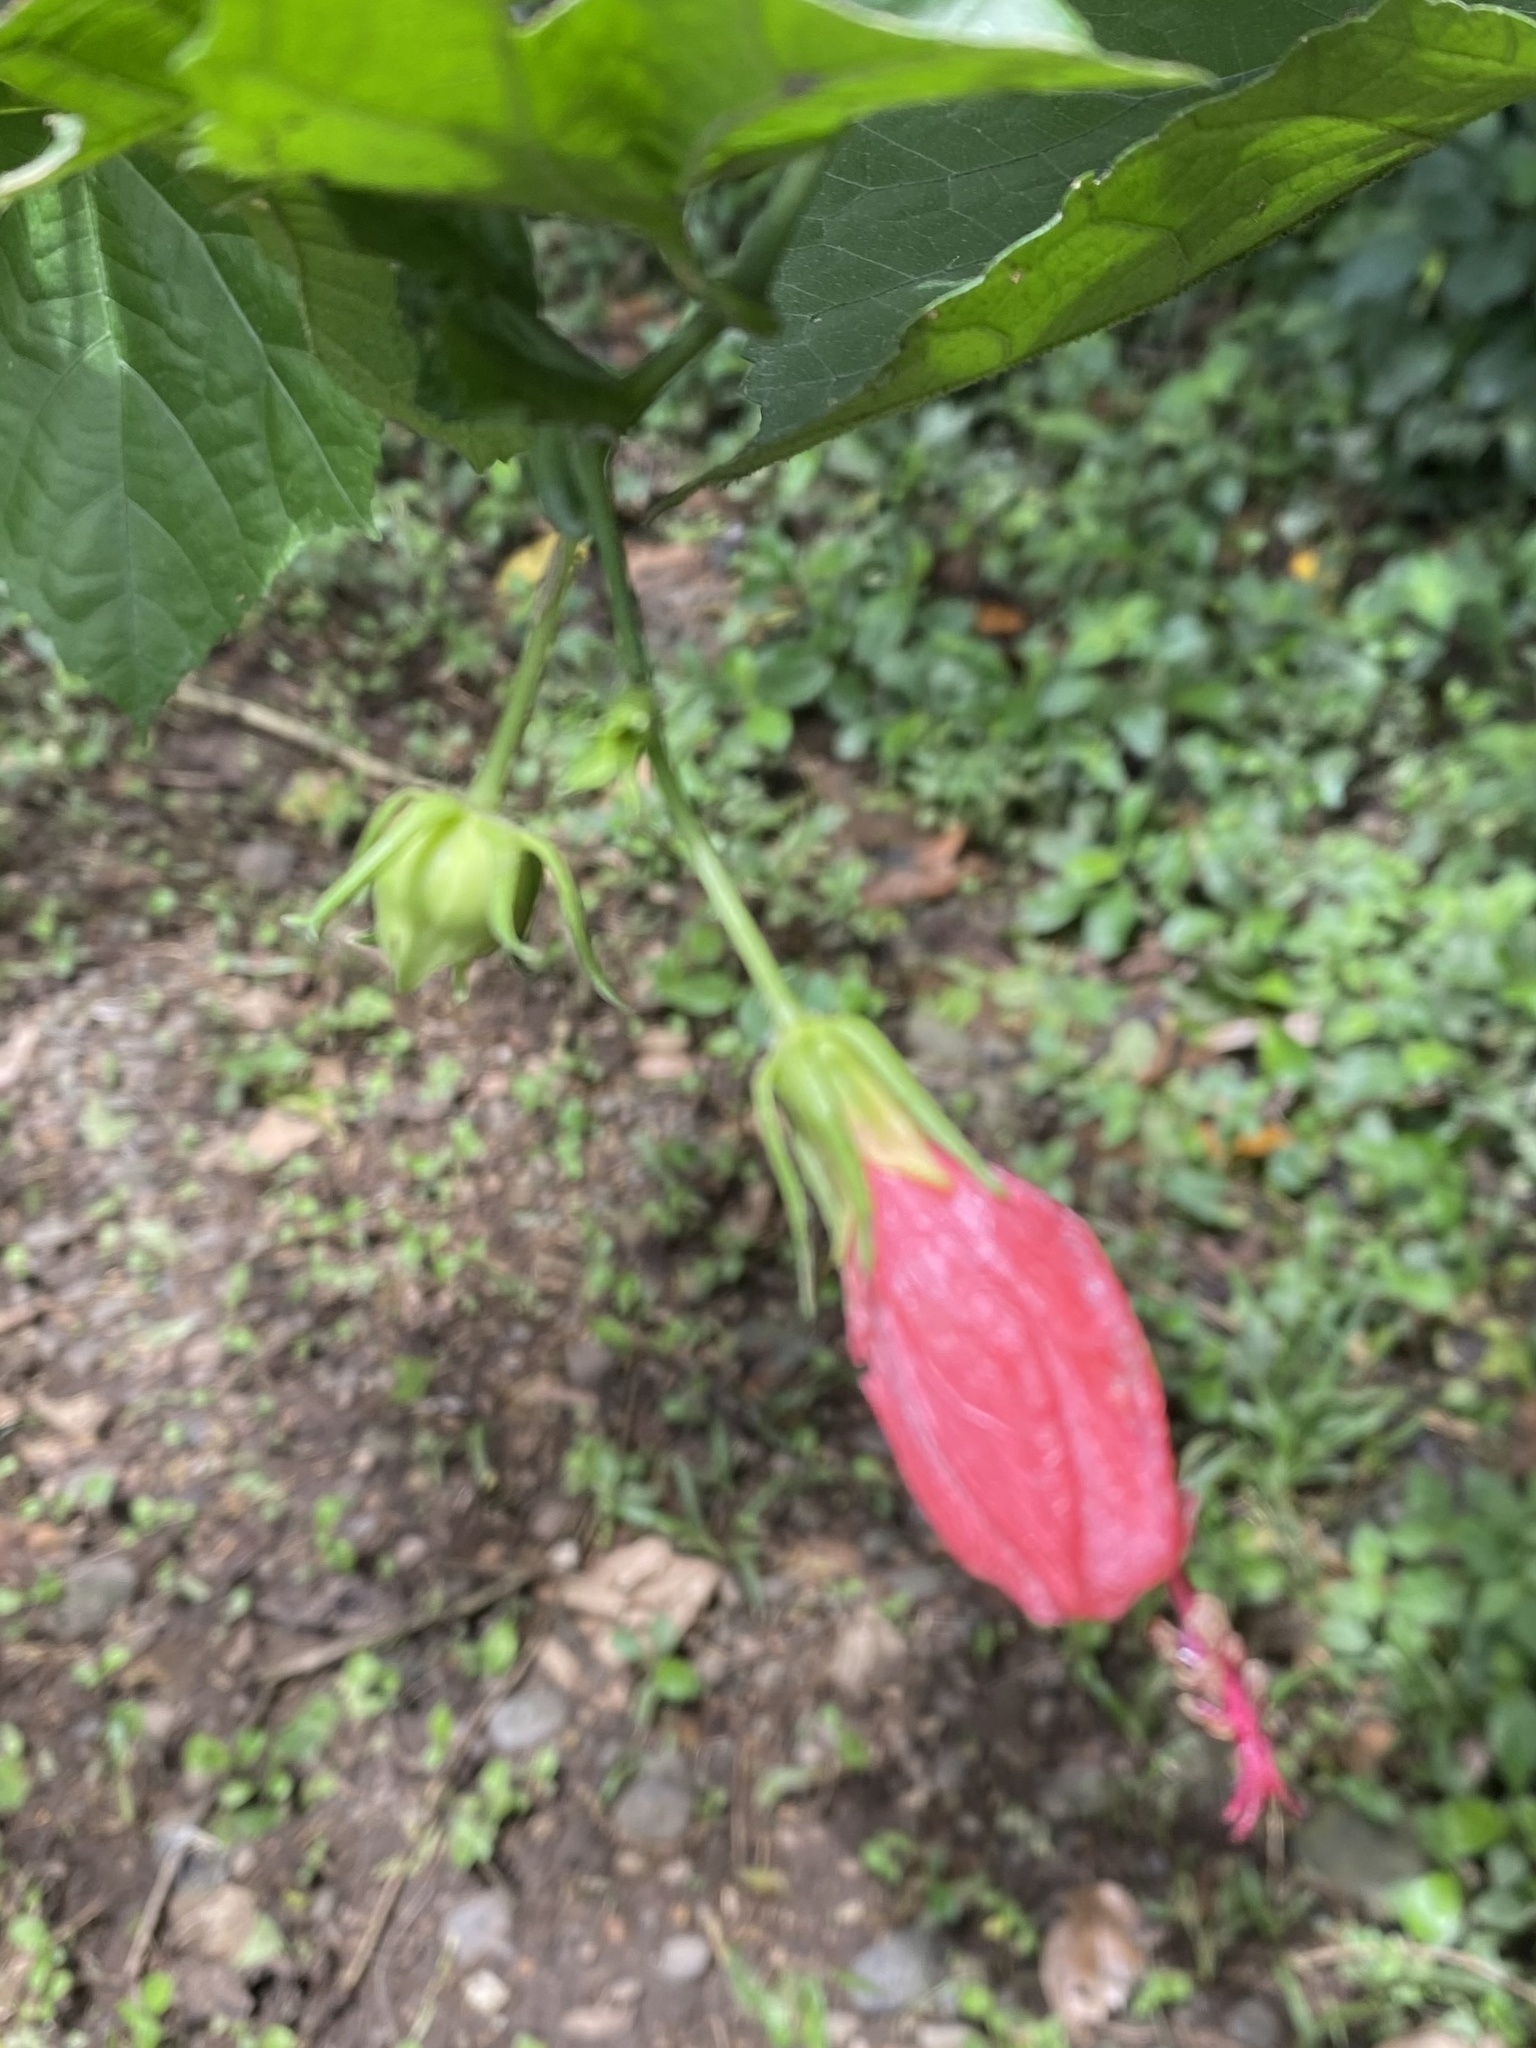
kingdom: Plantae
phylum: Tracheophyta
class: Magnoliopsida
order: Malvales
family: Malvaceae
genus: Malvaviscus
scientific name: Malvaviscus penduliflorus
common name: Mazapan
